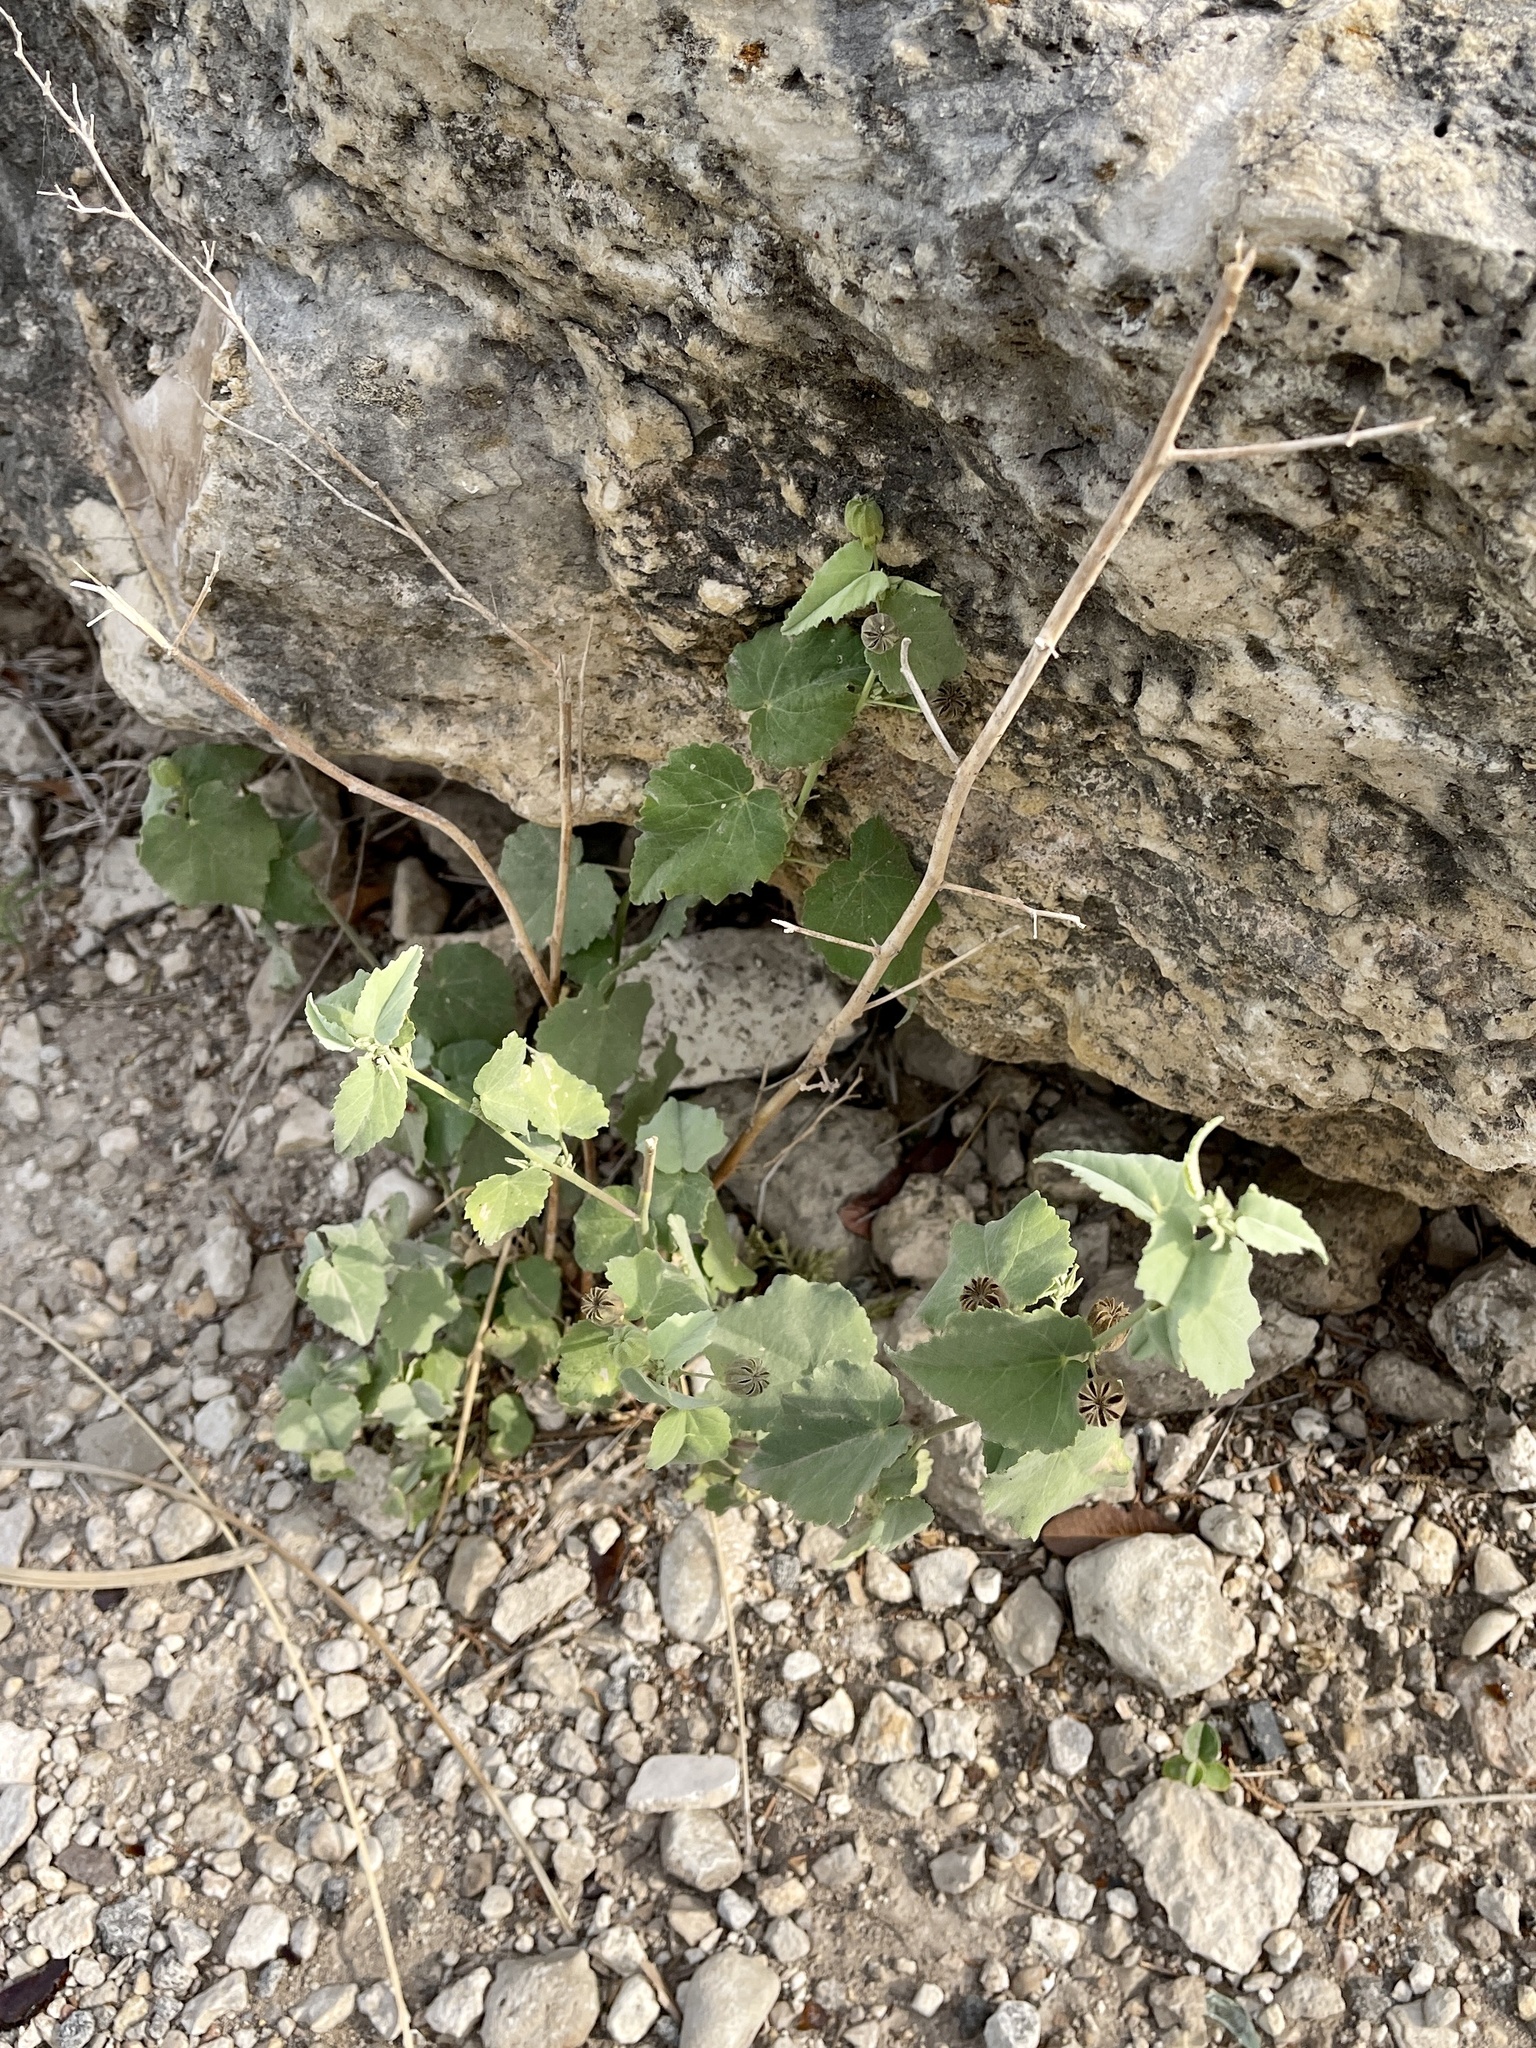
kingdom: Plantae
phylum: Tracheophyta
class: Magnoliopsida
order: Malvales
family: Malvaceae
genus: Abutilon
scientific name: Abutilon fruticosum
